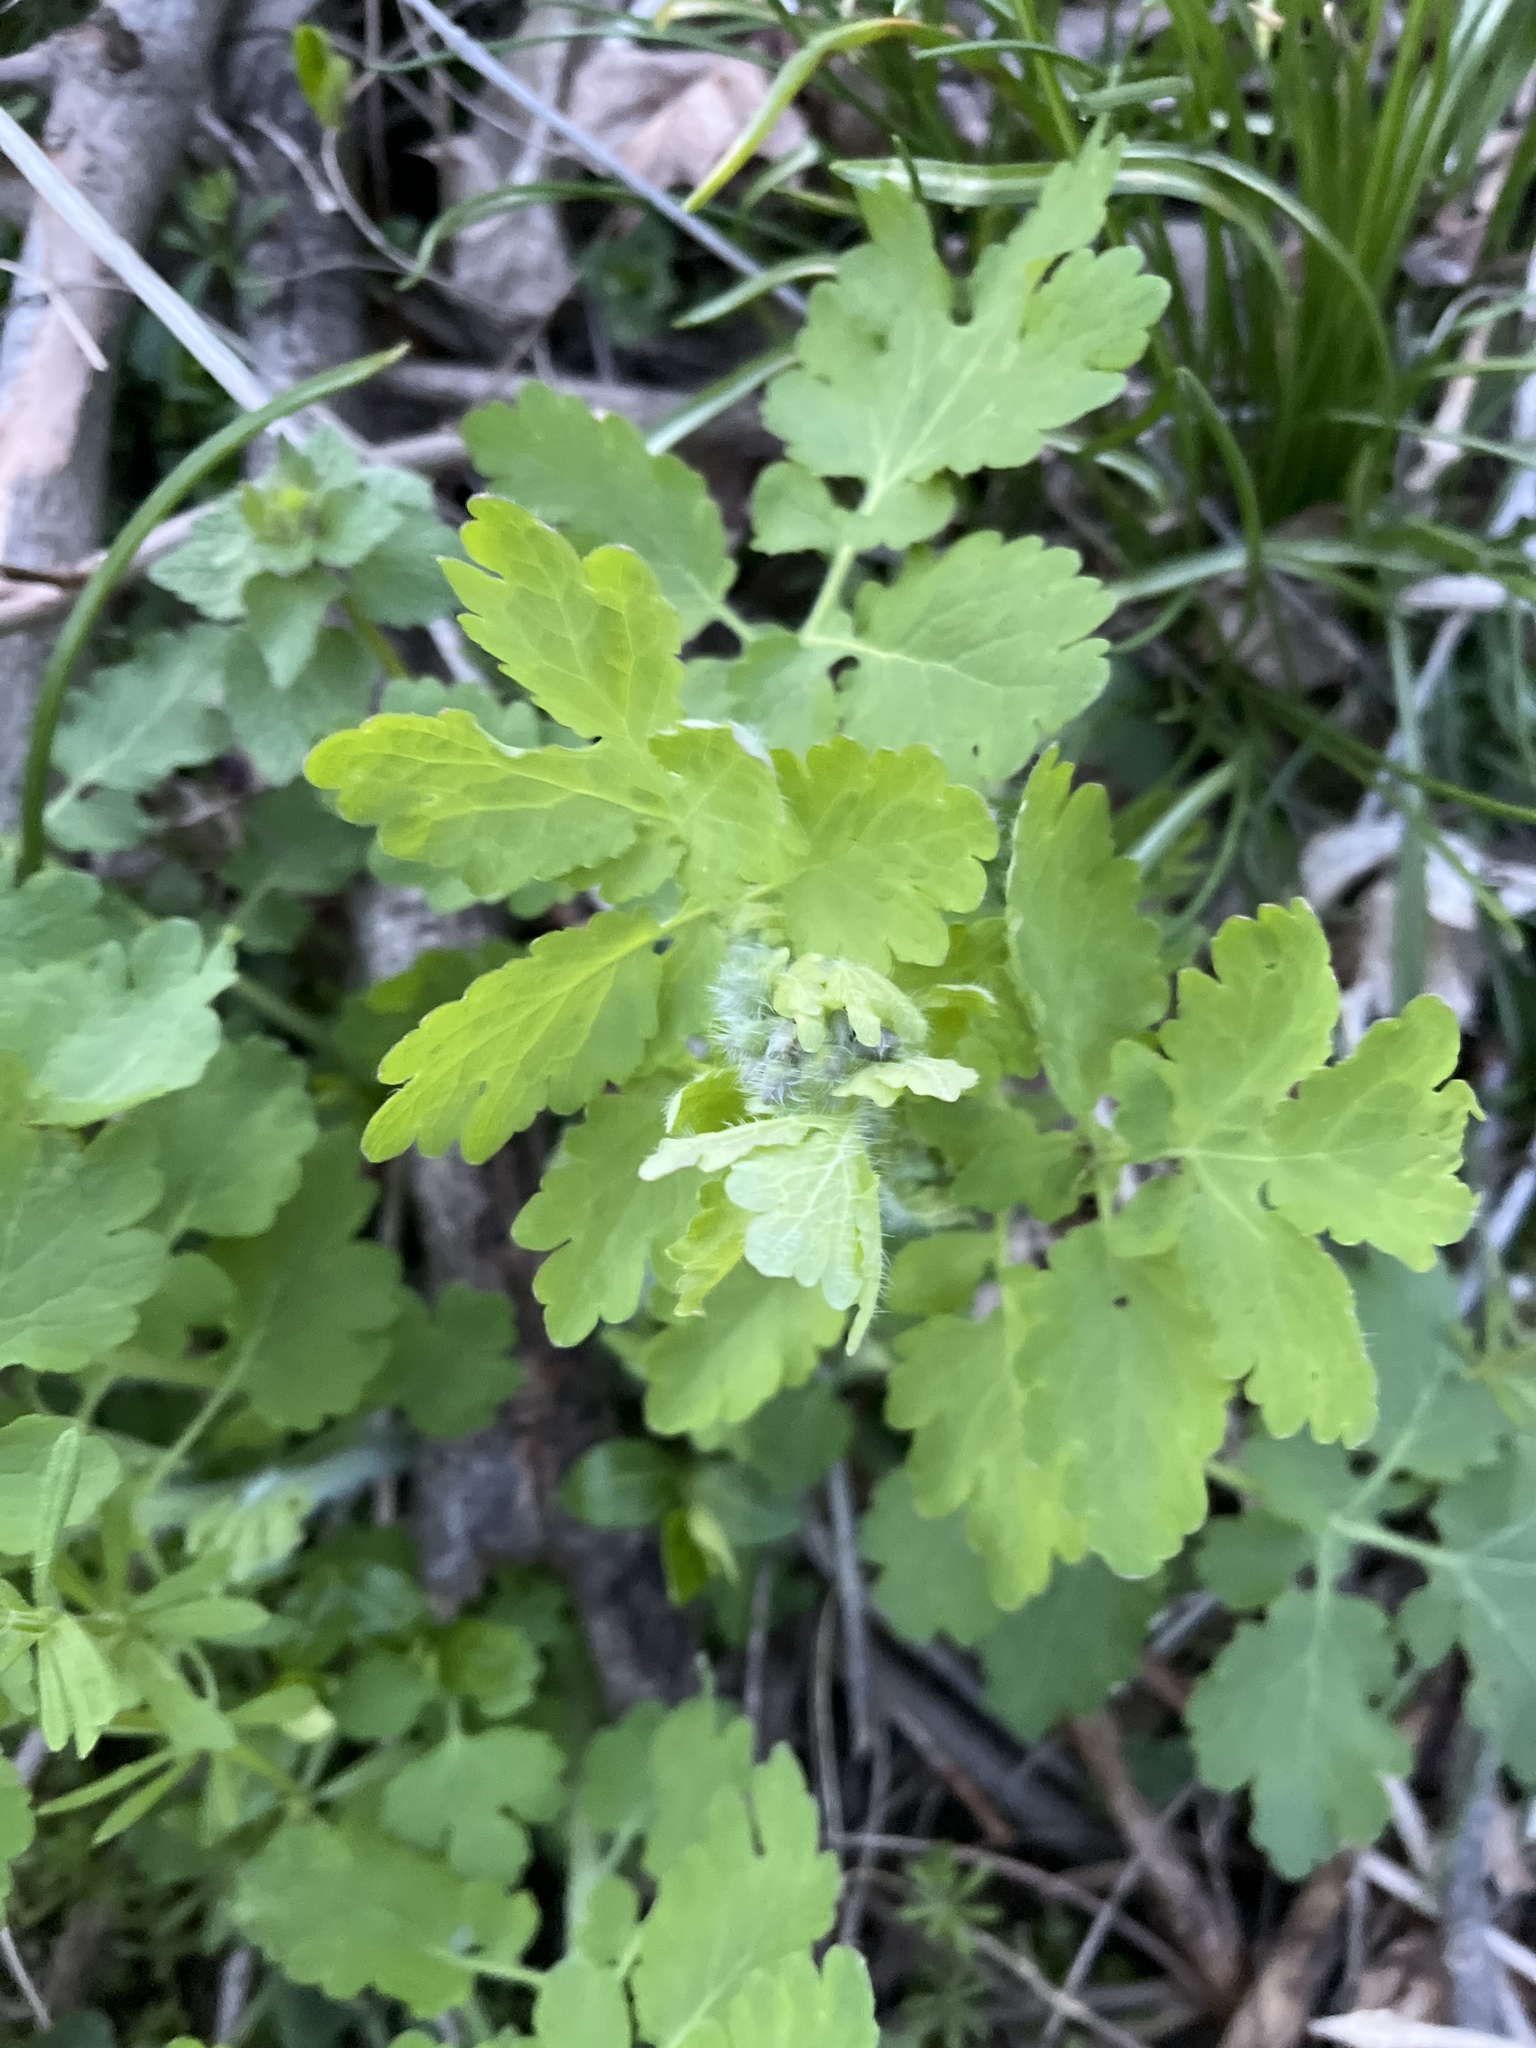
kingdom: Plantae
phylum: Tracheophyta
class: Magnoliopsida
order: Ranunculales
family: Papaveraceae
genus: Chelidonium
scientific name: Chelidonium majus
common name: Greater celandine
